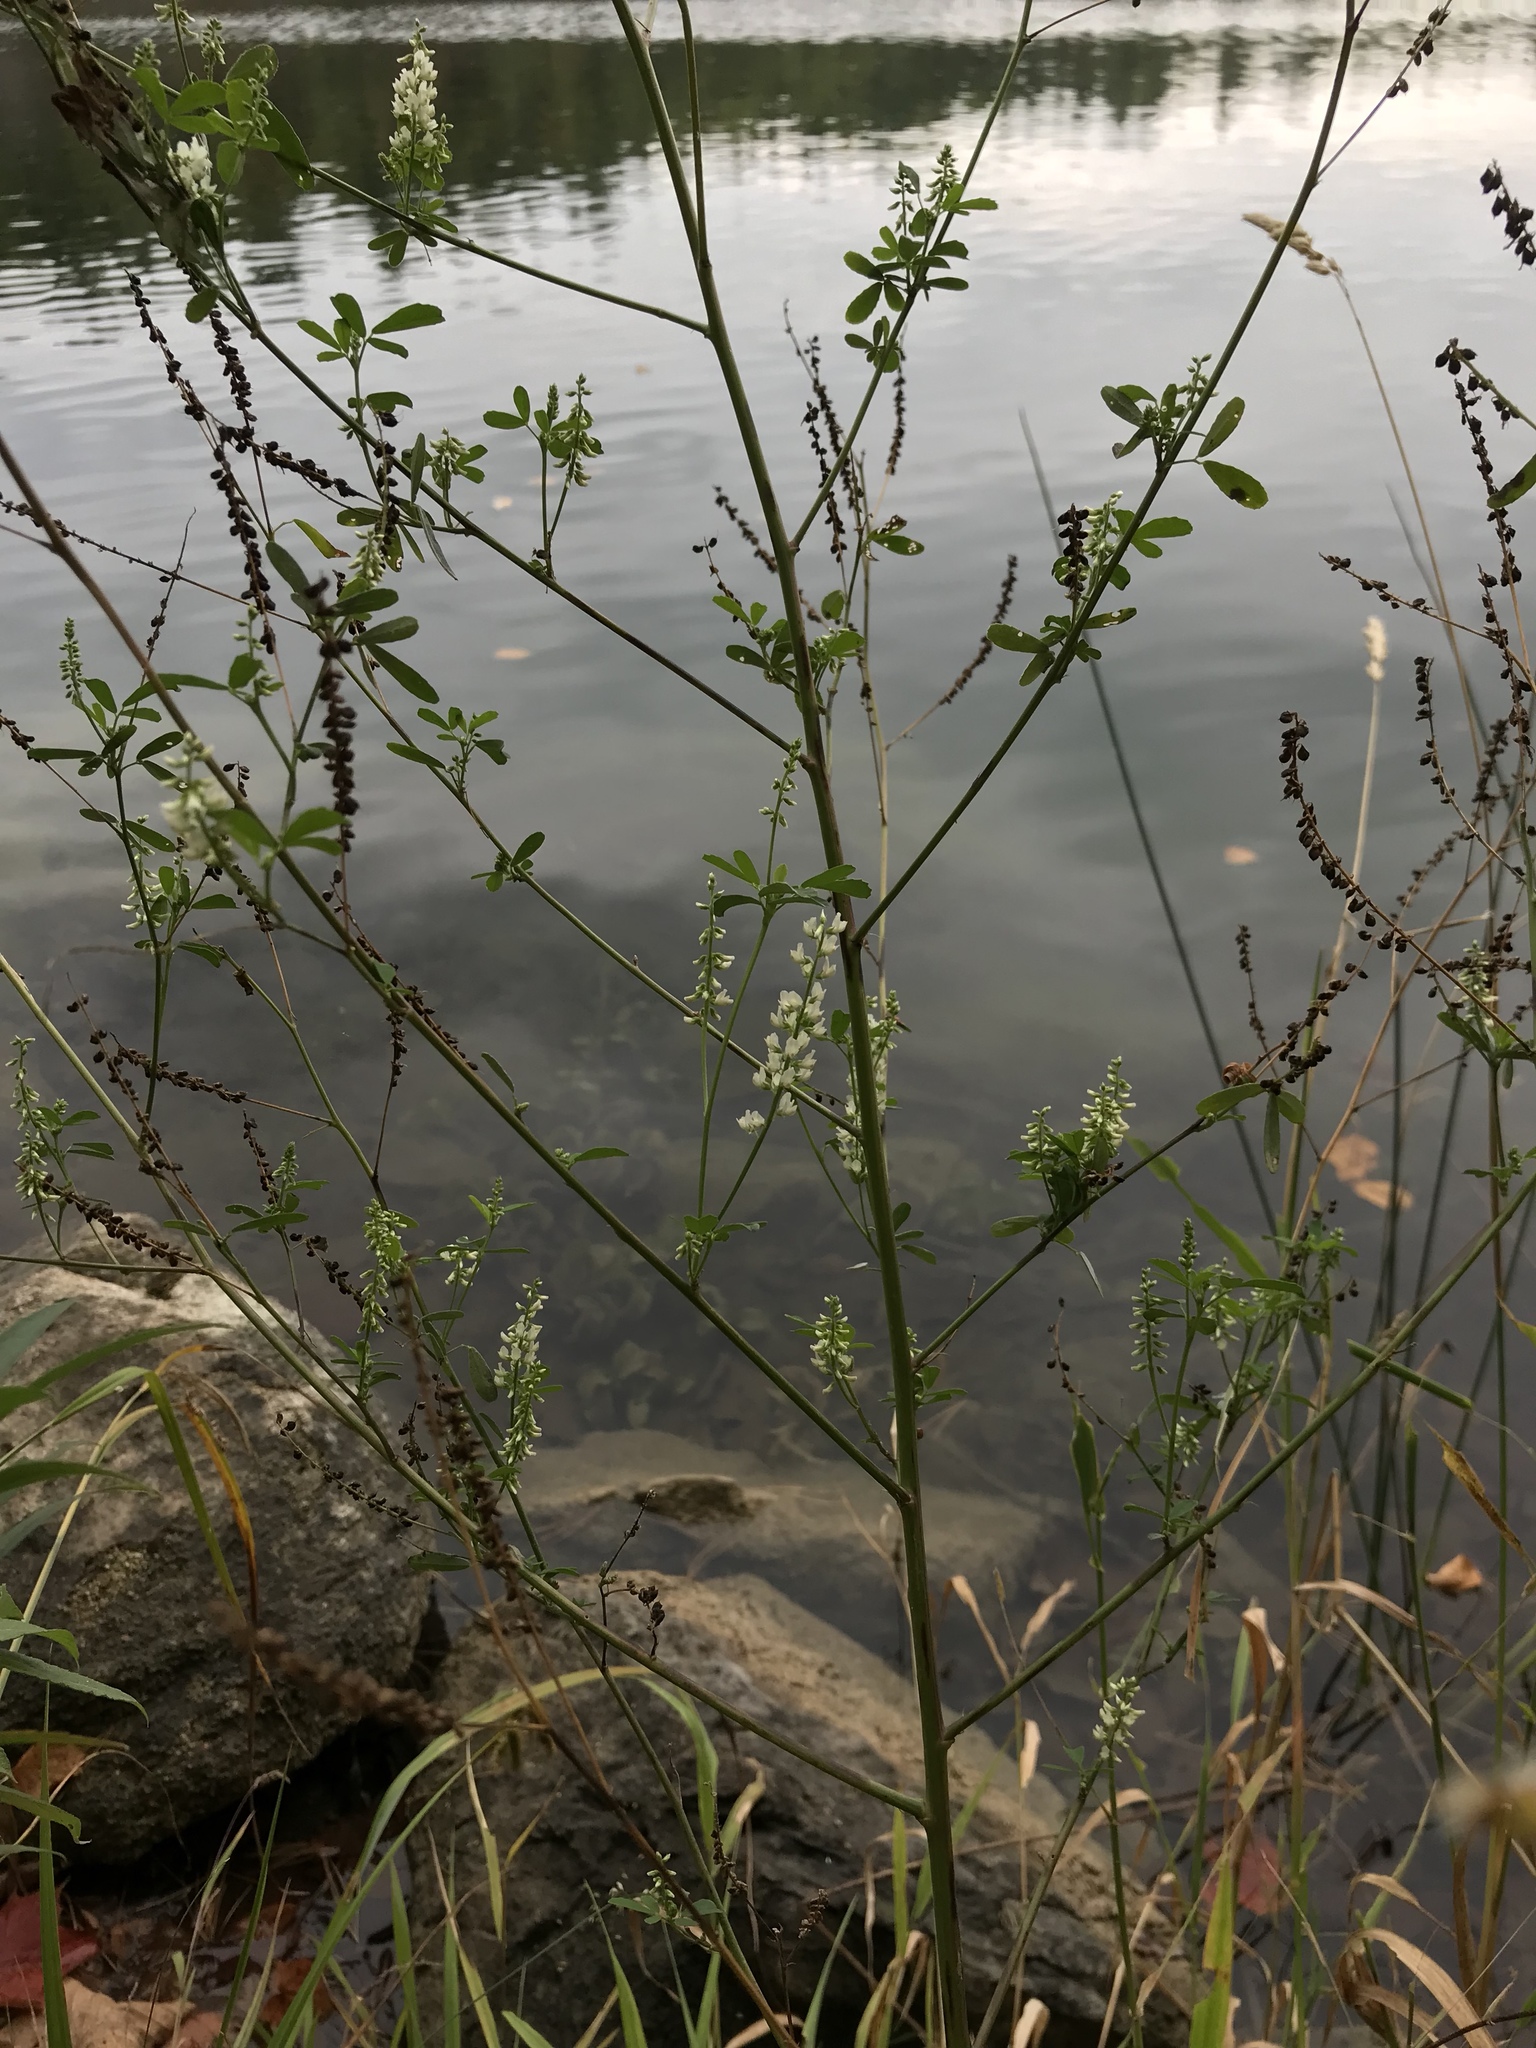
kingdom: Plantae
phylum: Tracheophyta
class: Magnoliopsida
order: Fabales
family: Fabaceae
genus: Melilotus
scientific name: Melilotus albus
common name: White melilot
